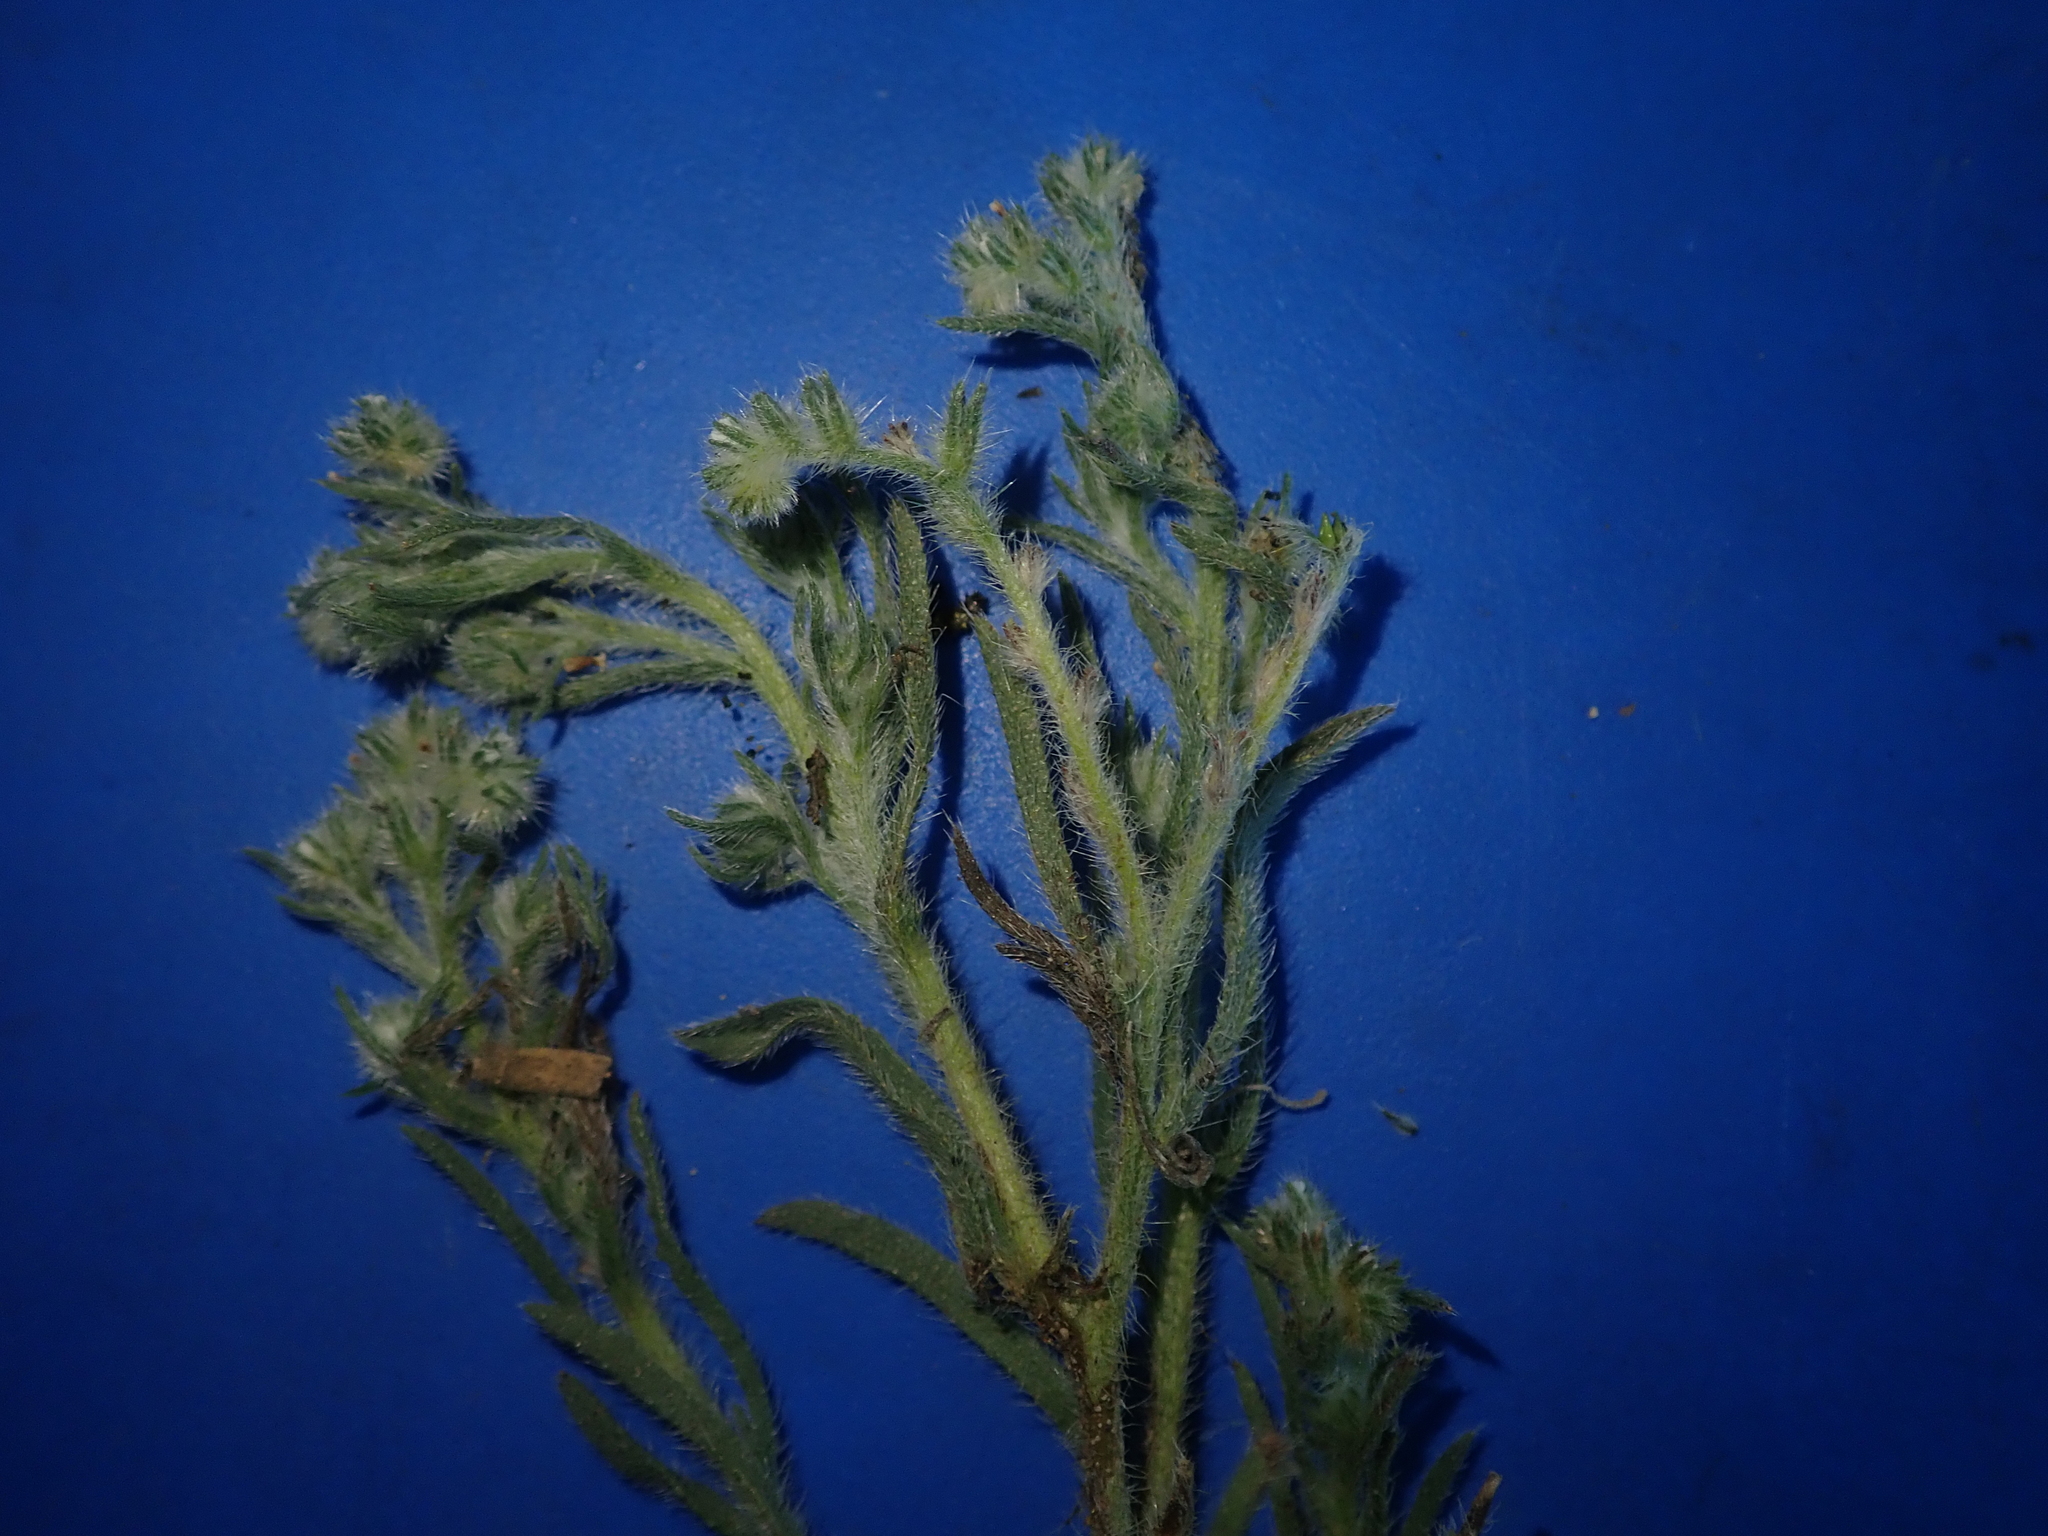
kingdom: Plantae
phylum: Tracheophyta
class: Magnoliopsida
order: Boraginales
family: Boraginaceae
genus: Cryptantha
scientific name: Cryptantha fendleri
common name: Sand-dune cryptantha
